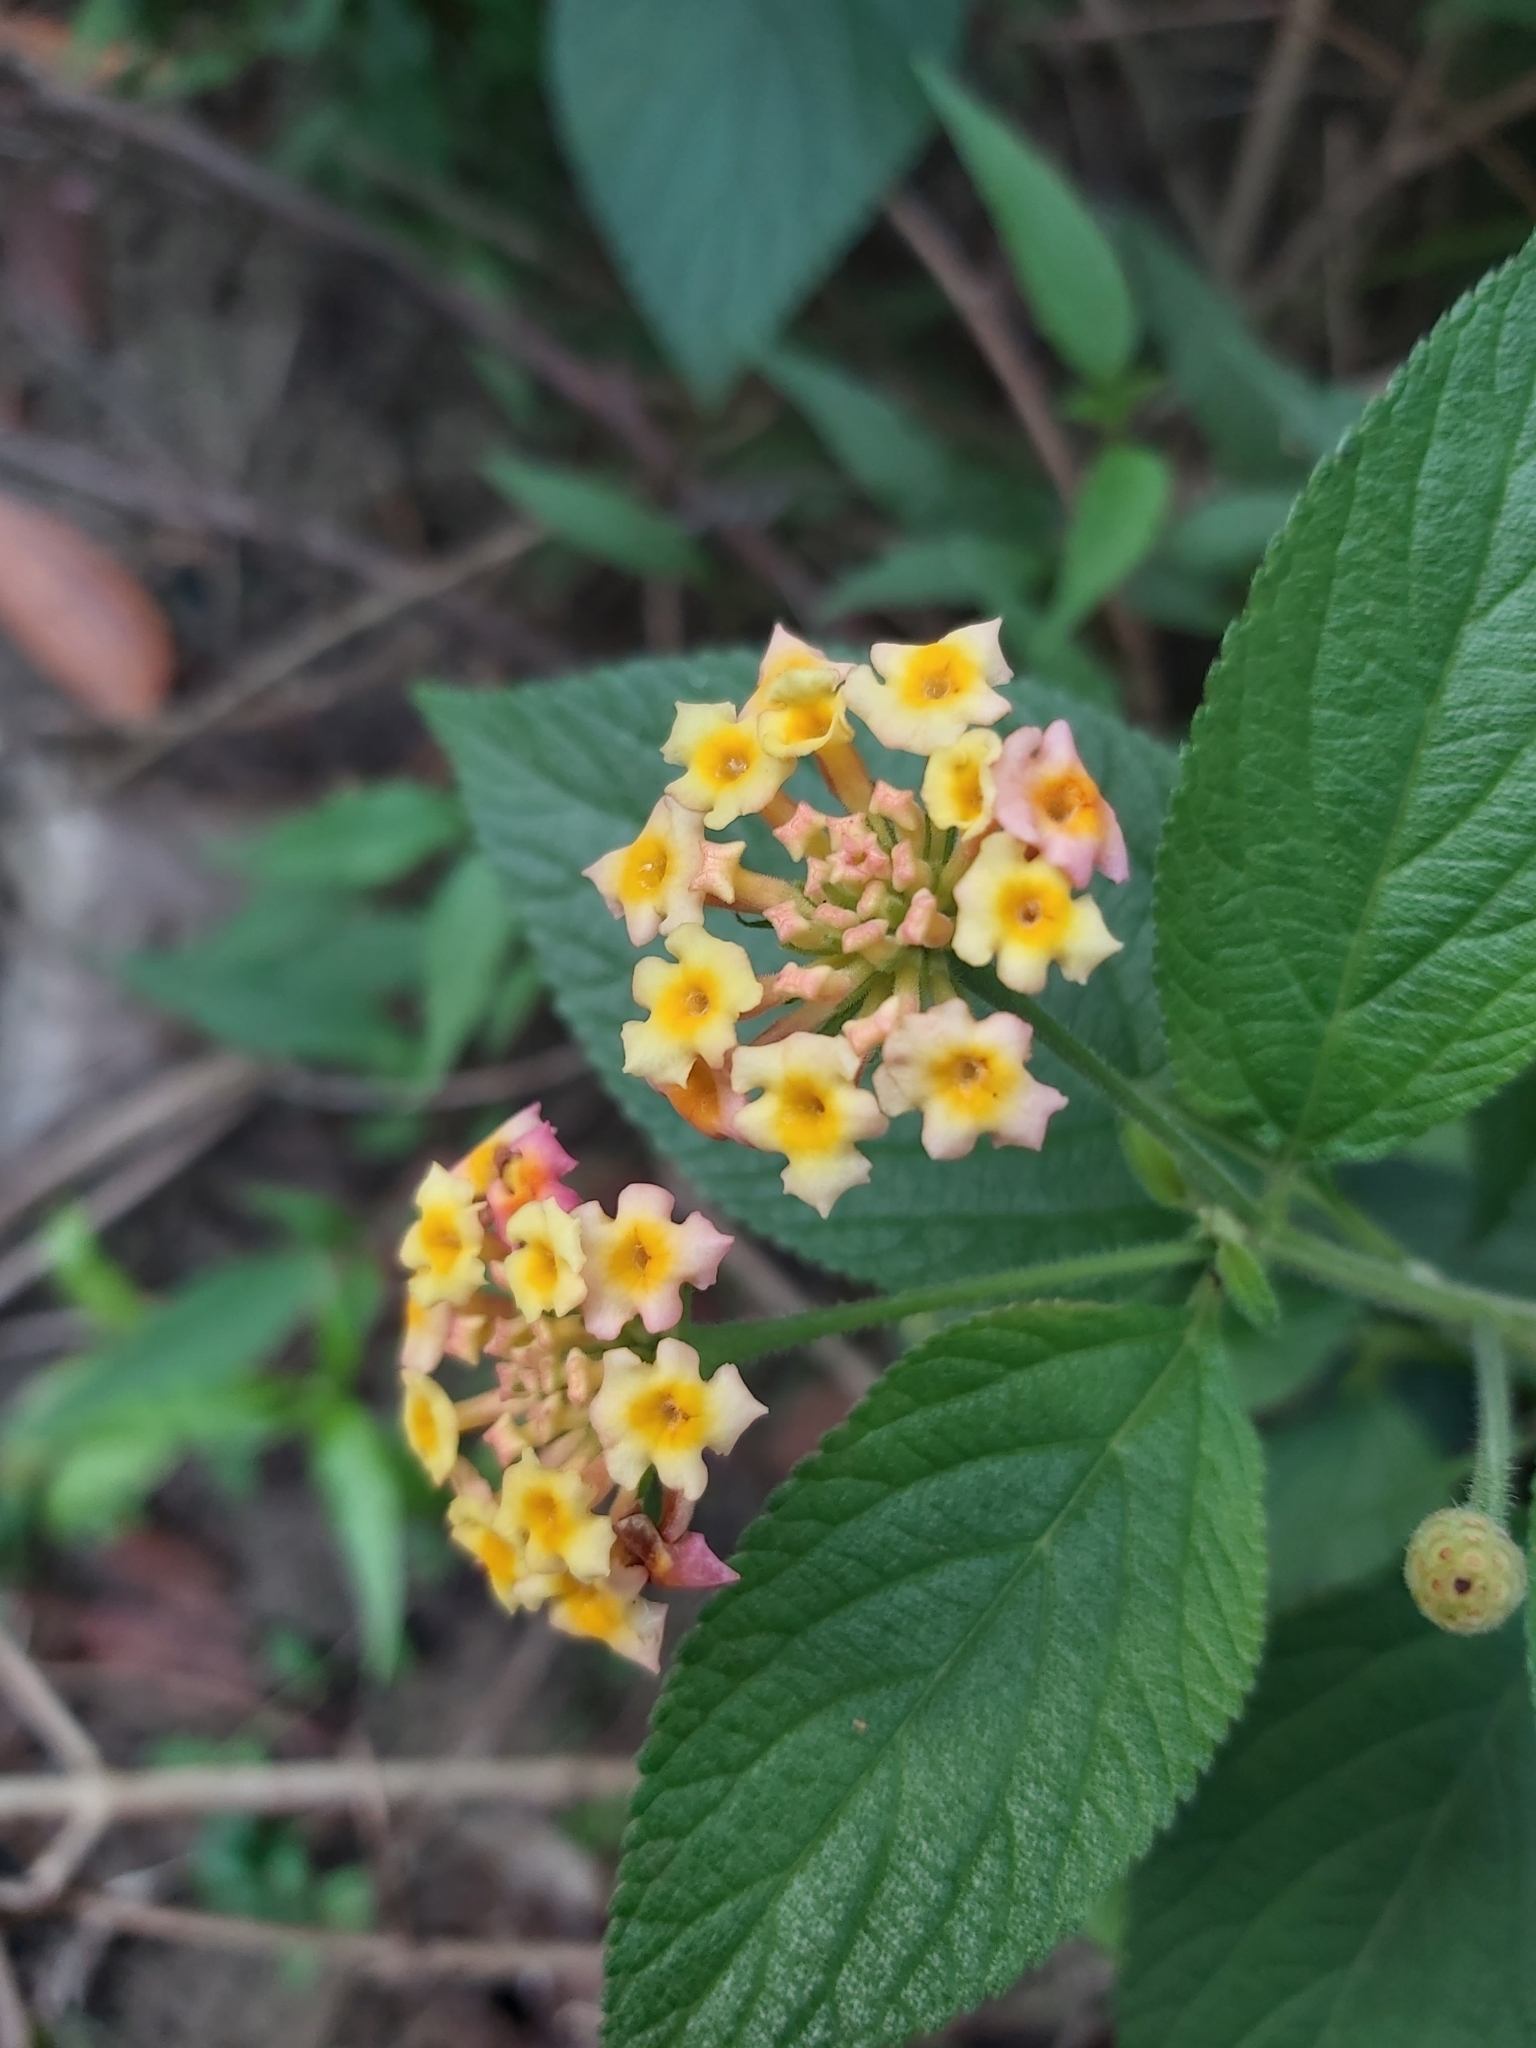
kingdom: Plantae
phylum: Tracheophyta
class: Magnoliopsida
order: Lamiales
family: Verbenaceae
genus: Lantana
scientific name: Lantana camara
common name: Lantana
